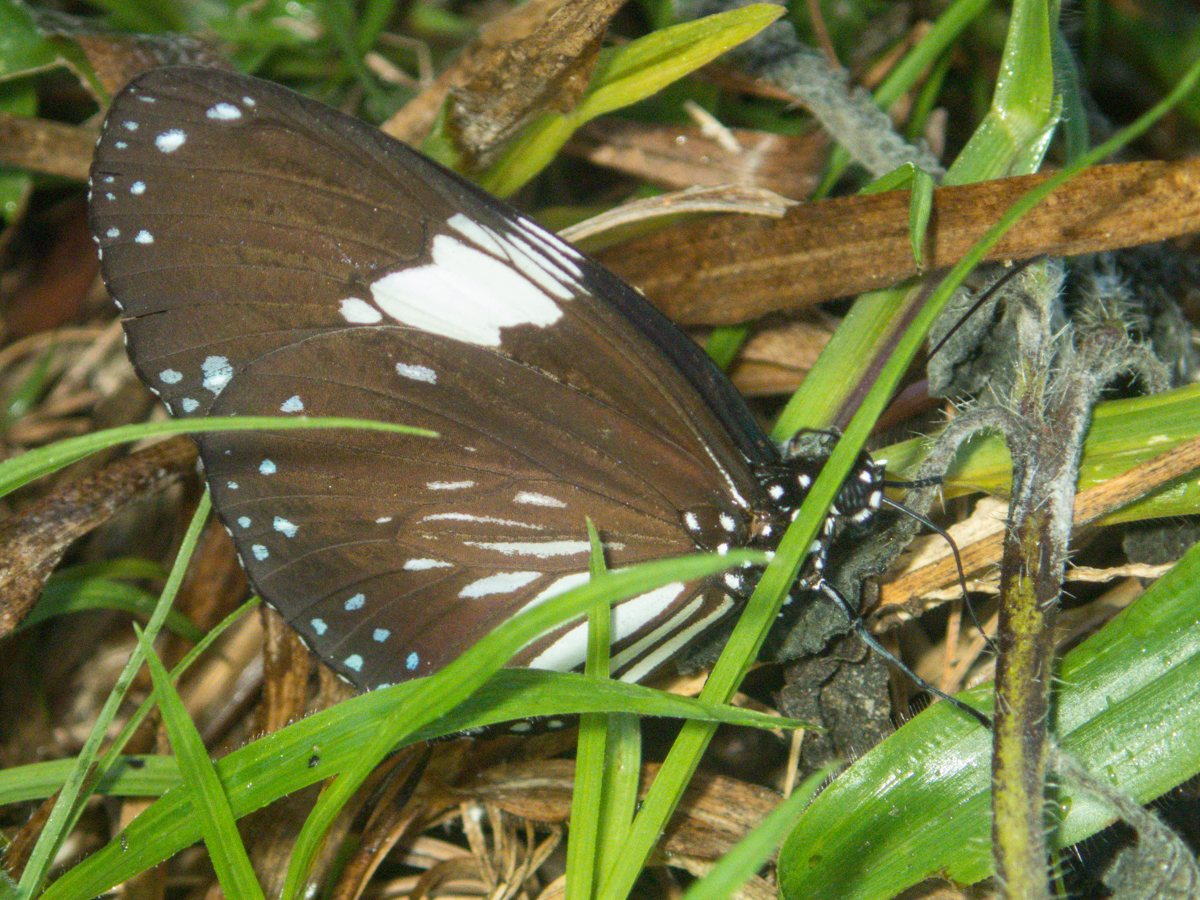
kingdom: Animalia
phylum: Arthropoda
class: Insecta
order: Lepidoptera
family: Nymphalidae
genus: Euploea
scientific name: Euploea radamanthus
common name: Magpie crow butterfly
